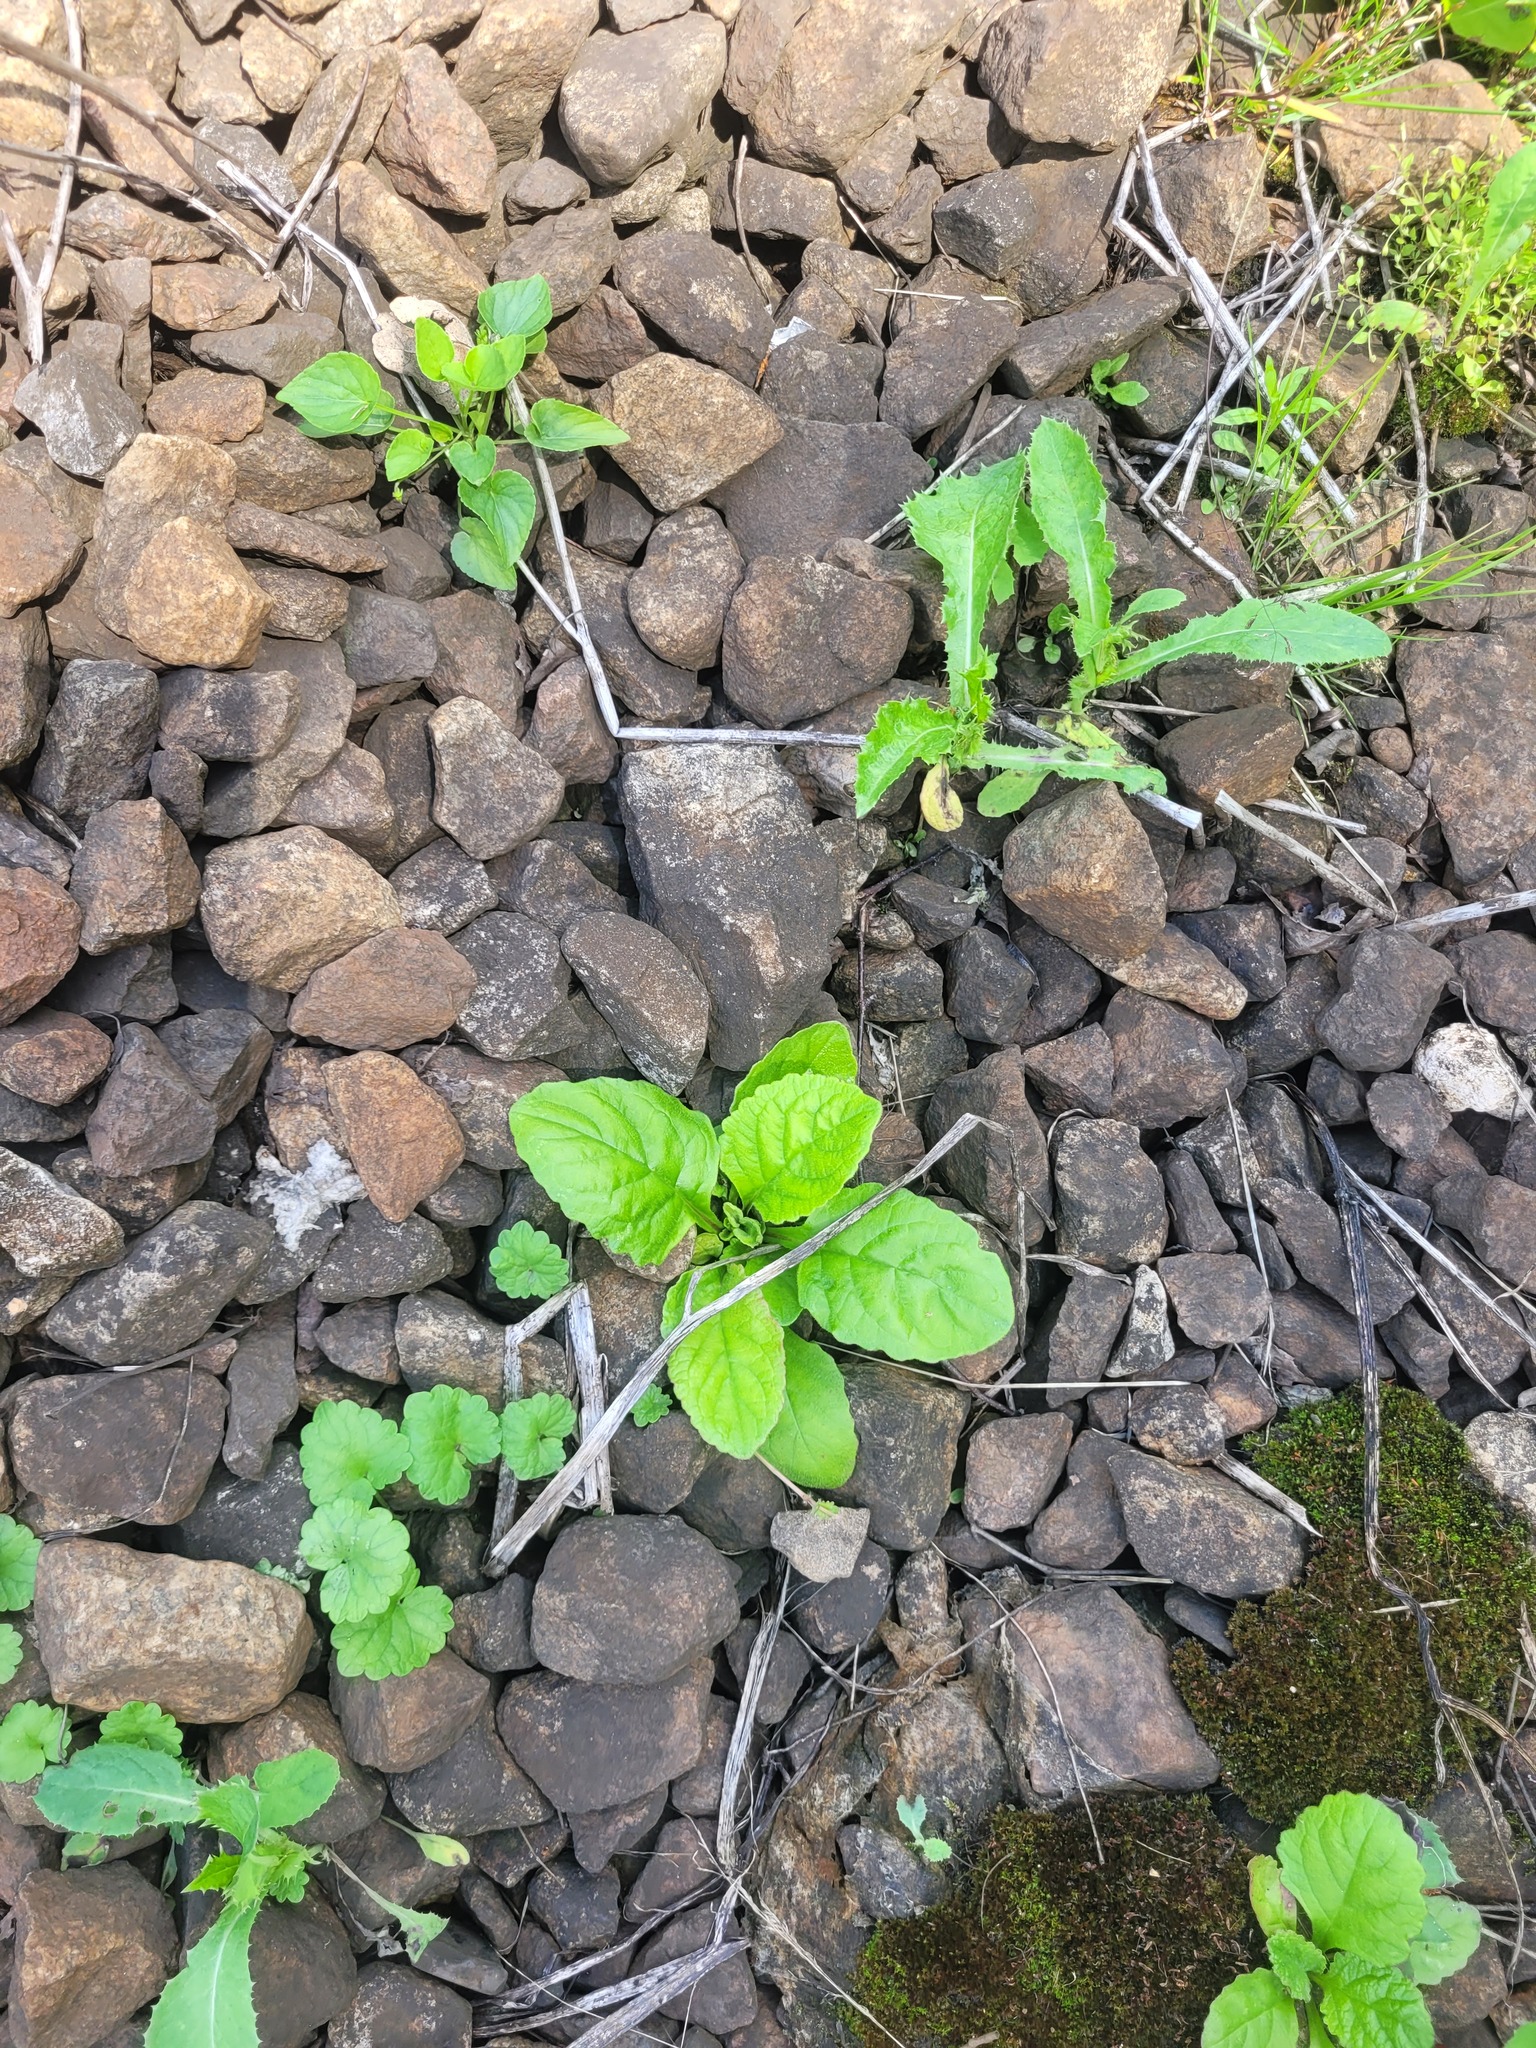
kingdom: Plantae
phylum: Tracheophyta
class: Magnoliopsida
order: Lamiales
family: Lamiaceae
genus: Ajuga
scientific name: Ajuga reptans
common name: Bugle
